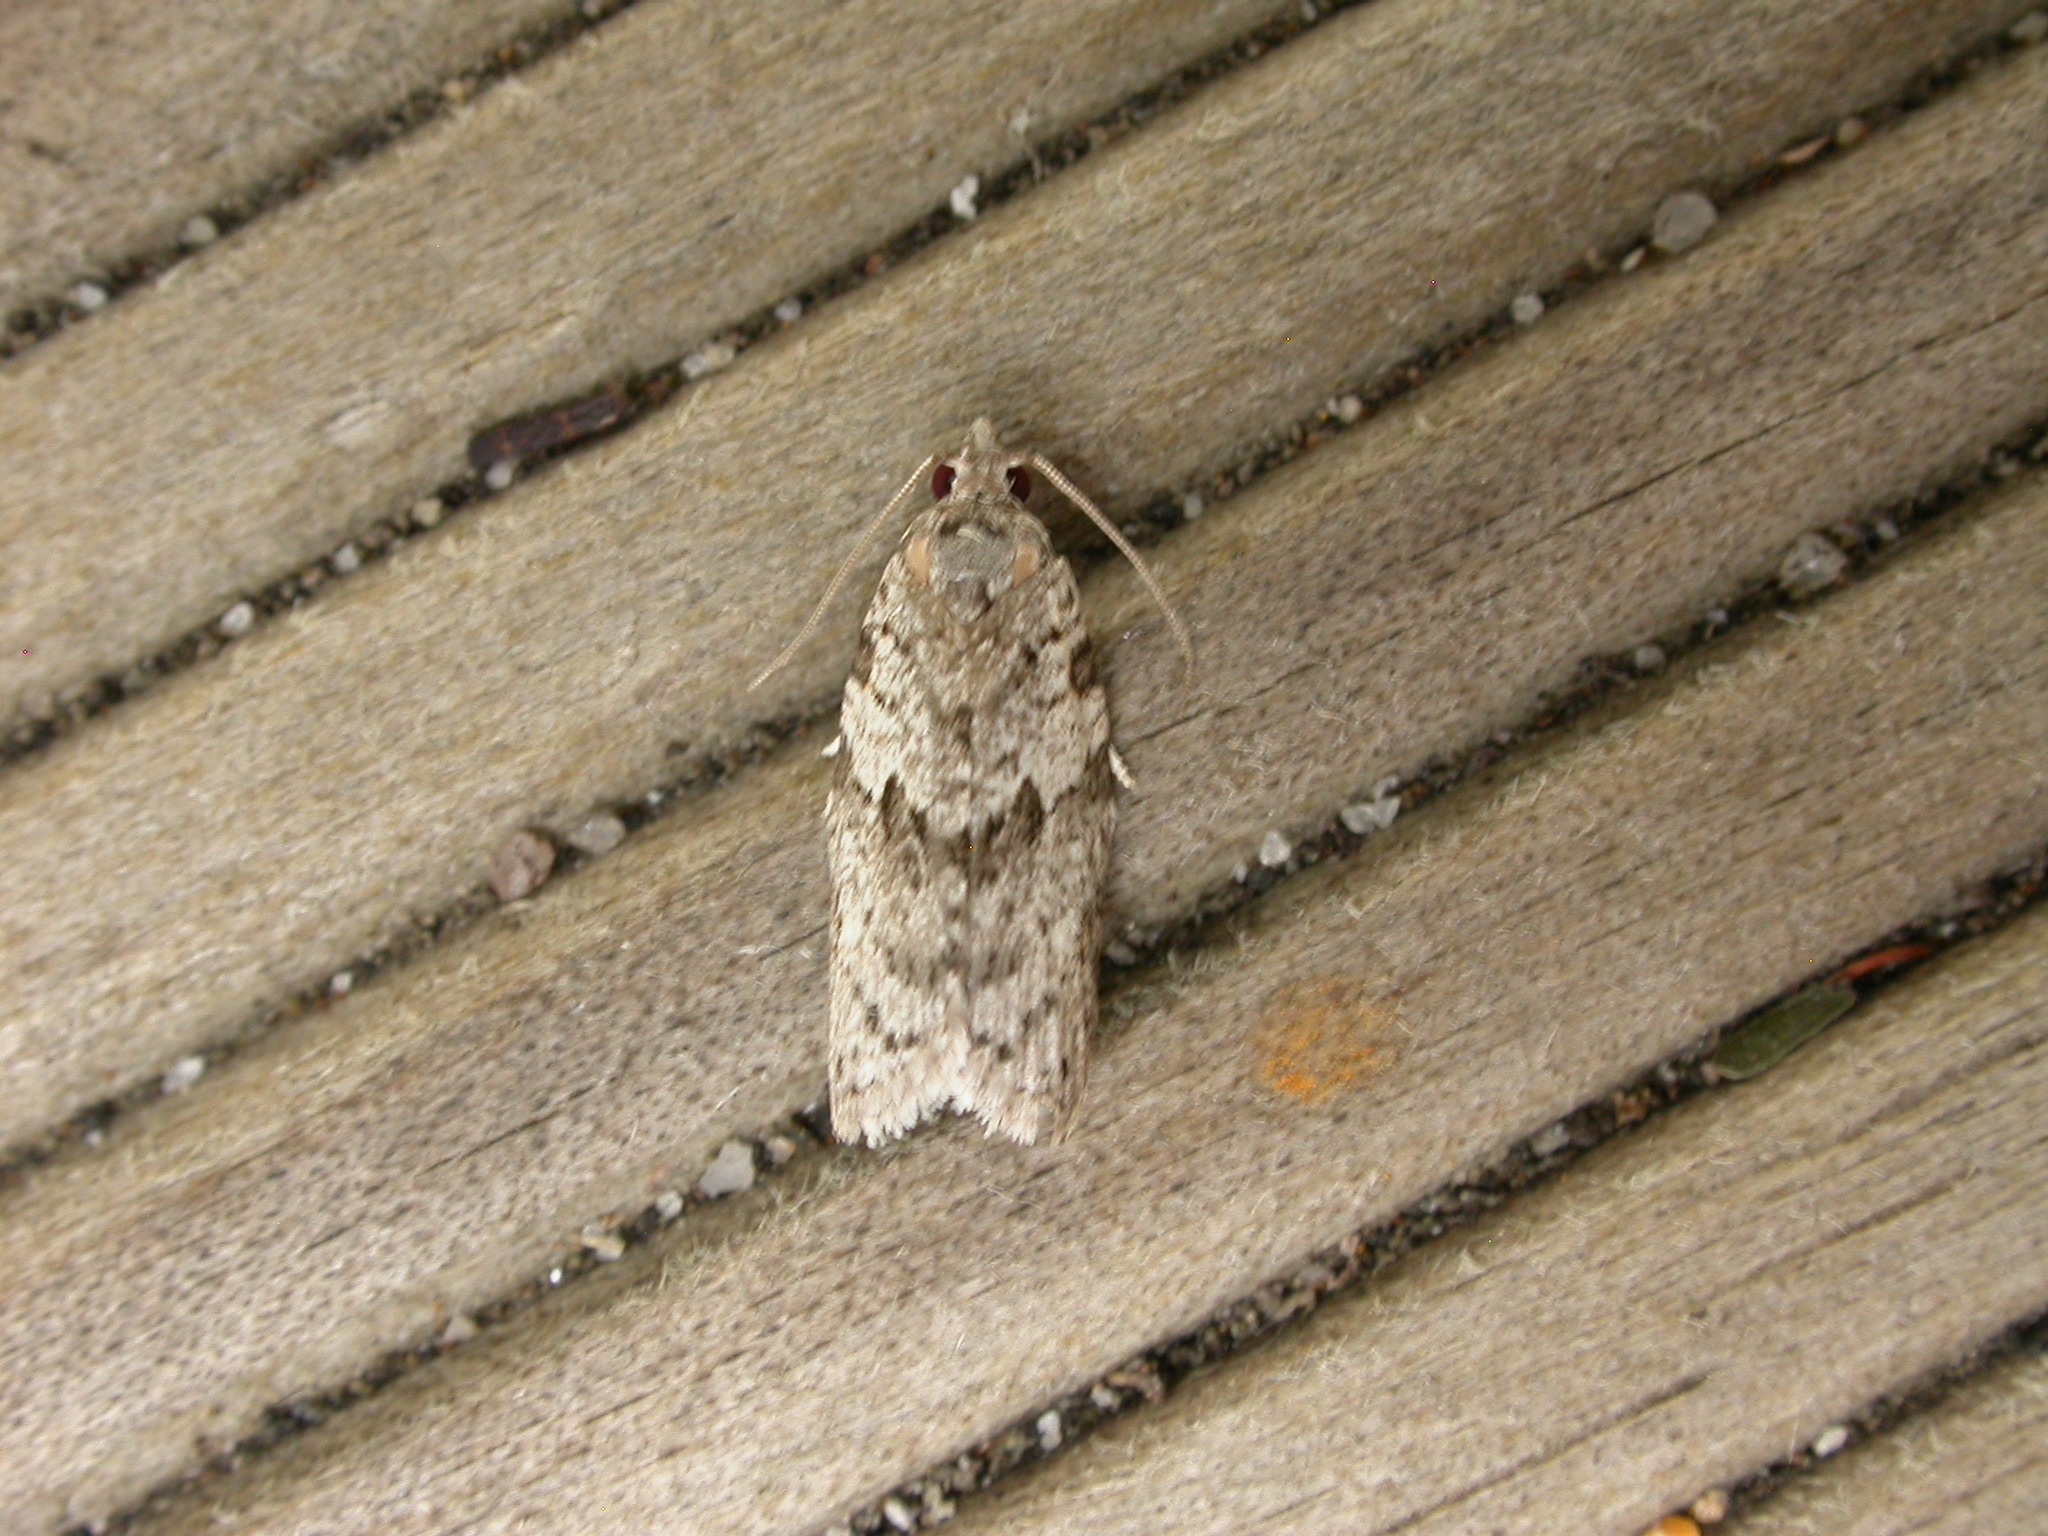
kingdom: Animalia
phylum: Arthropoda
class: Insecta
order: Lepidoptera
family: Tortricidae
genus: Isotenes
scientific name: Isotenes miserana
